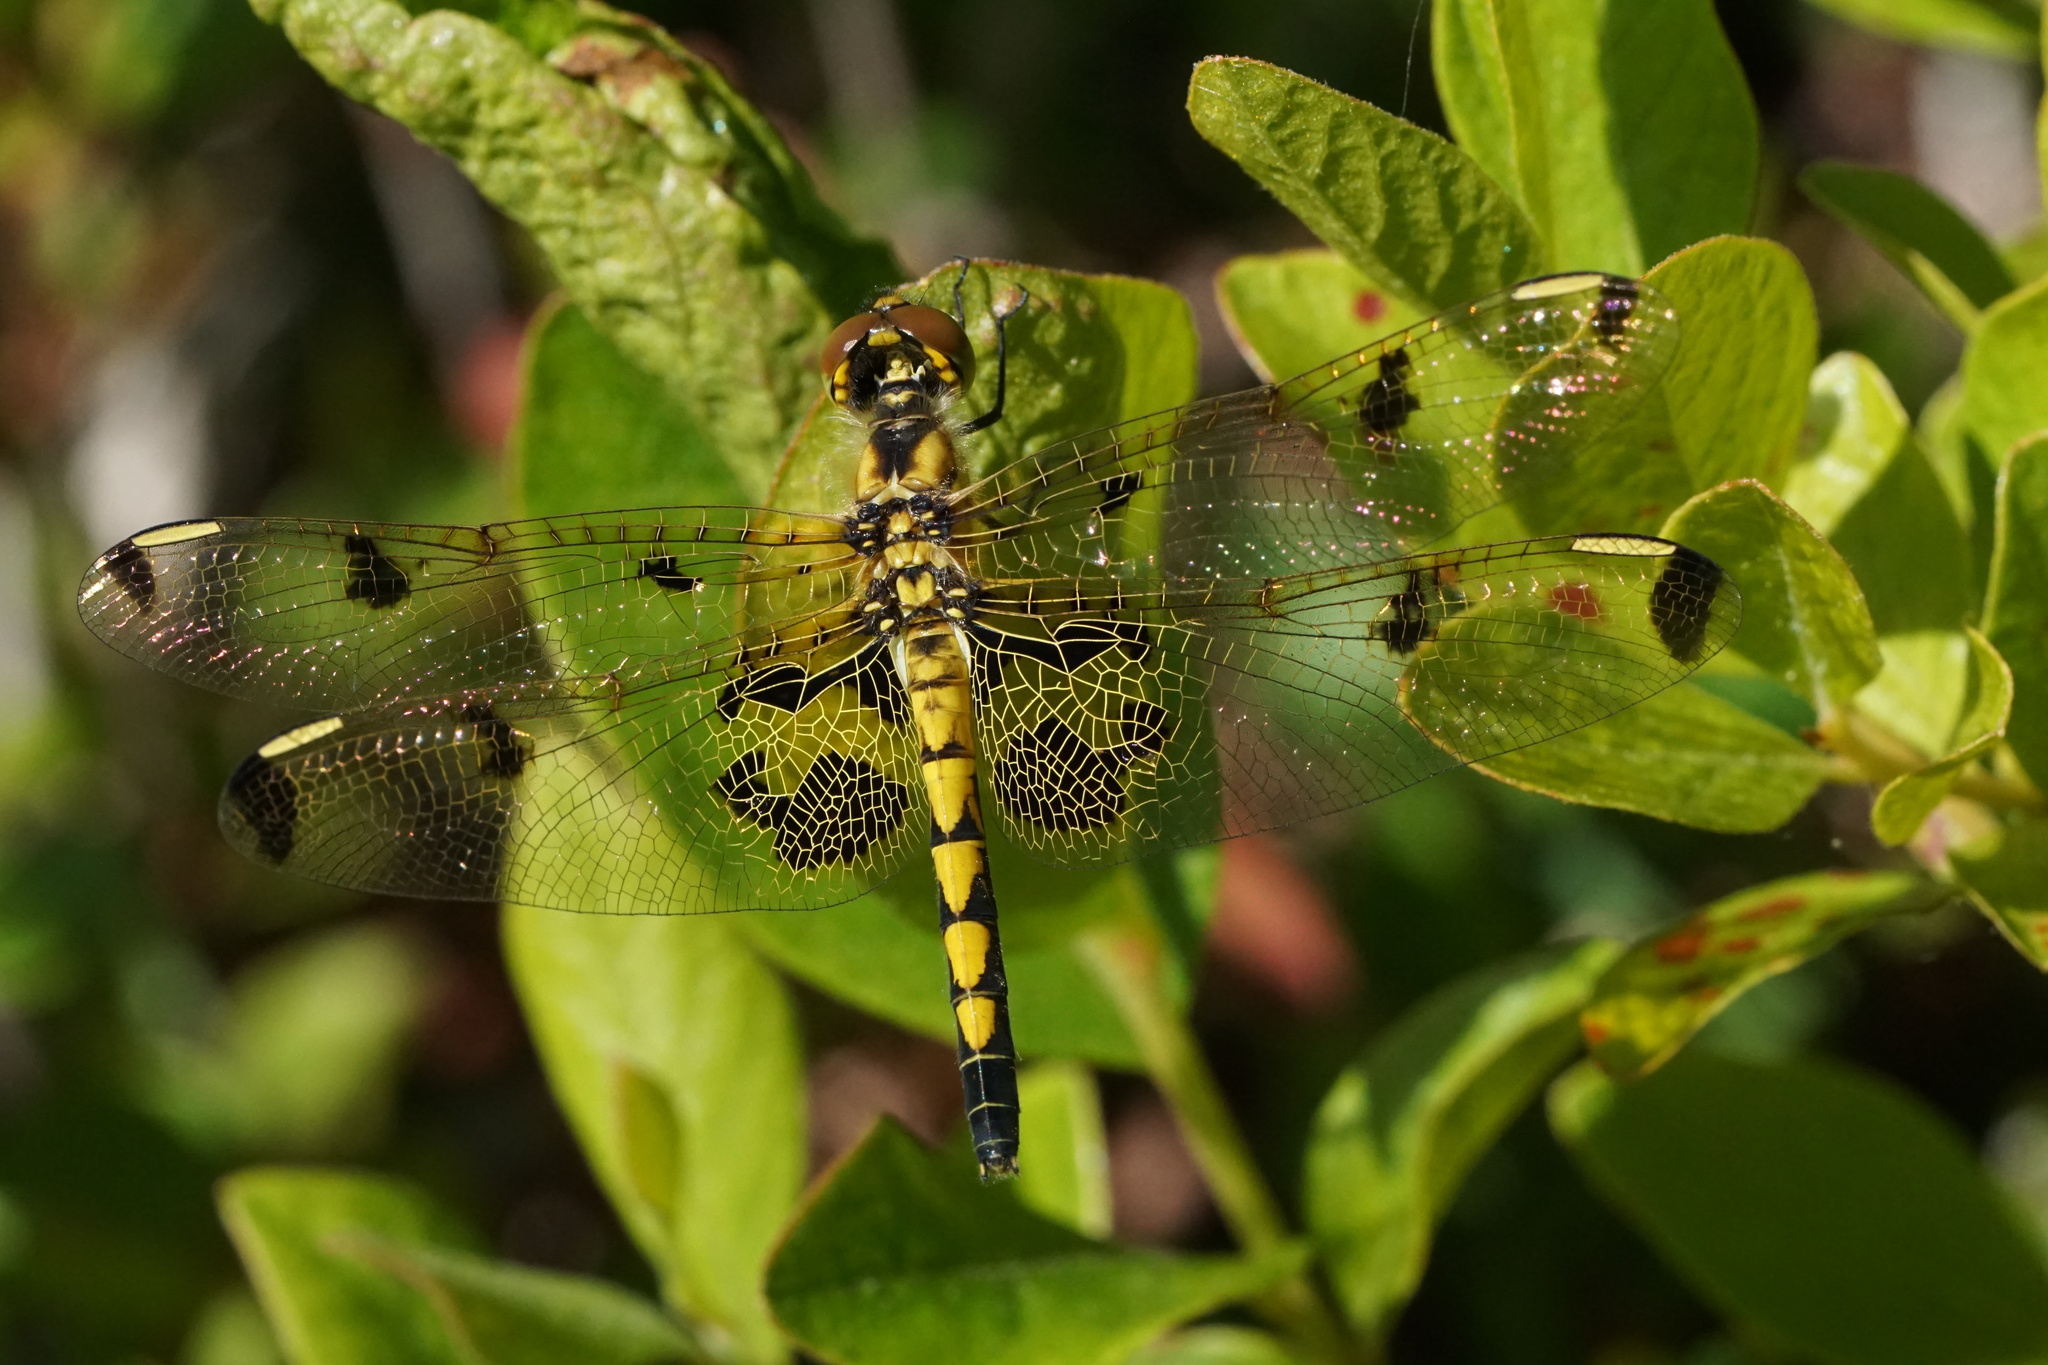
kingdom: Animalia
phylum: Arthropoda
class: Insecta
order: Odonata
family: Libellulidae
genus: Celithemis
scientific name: Celithemis elisa
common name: Calico pennant
